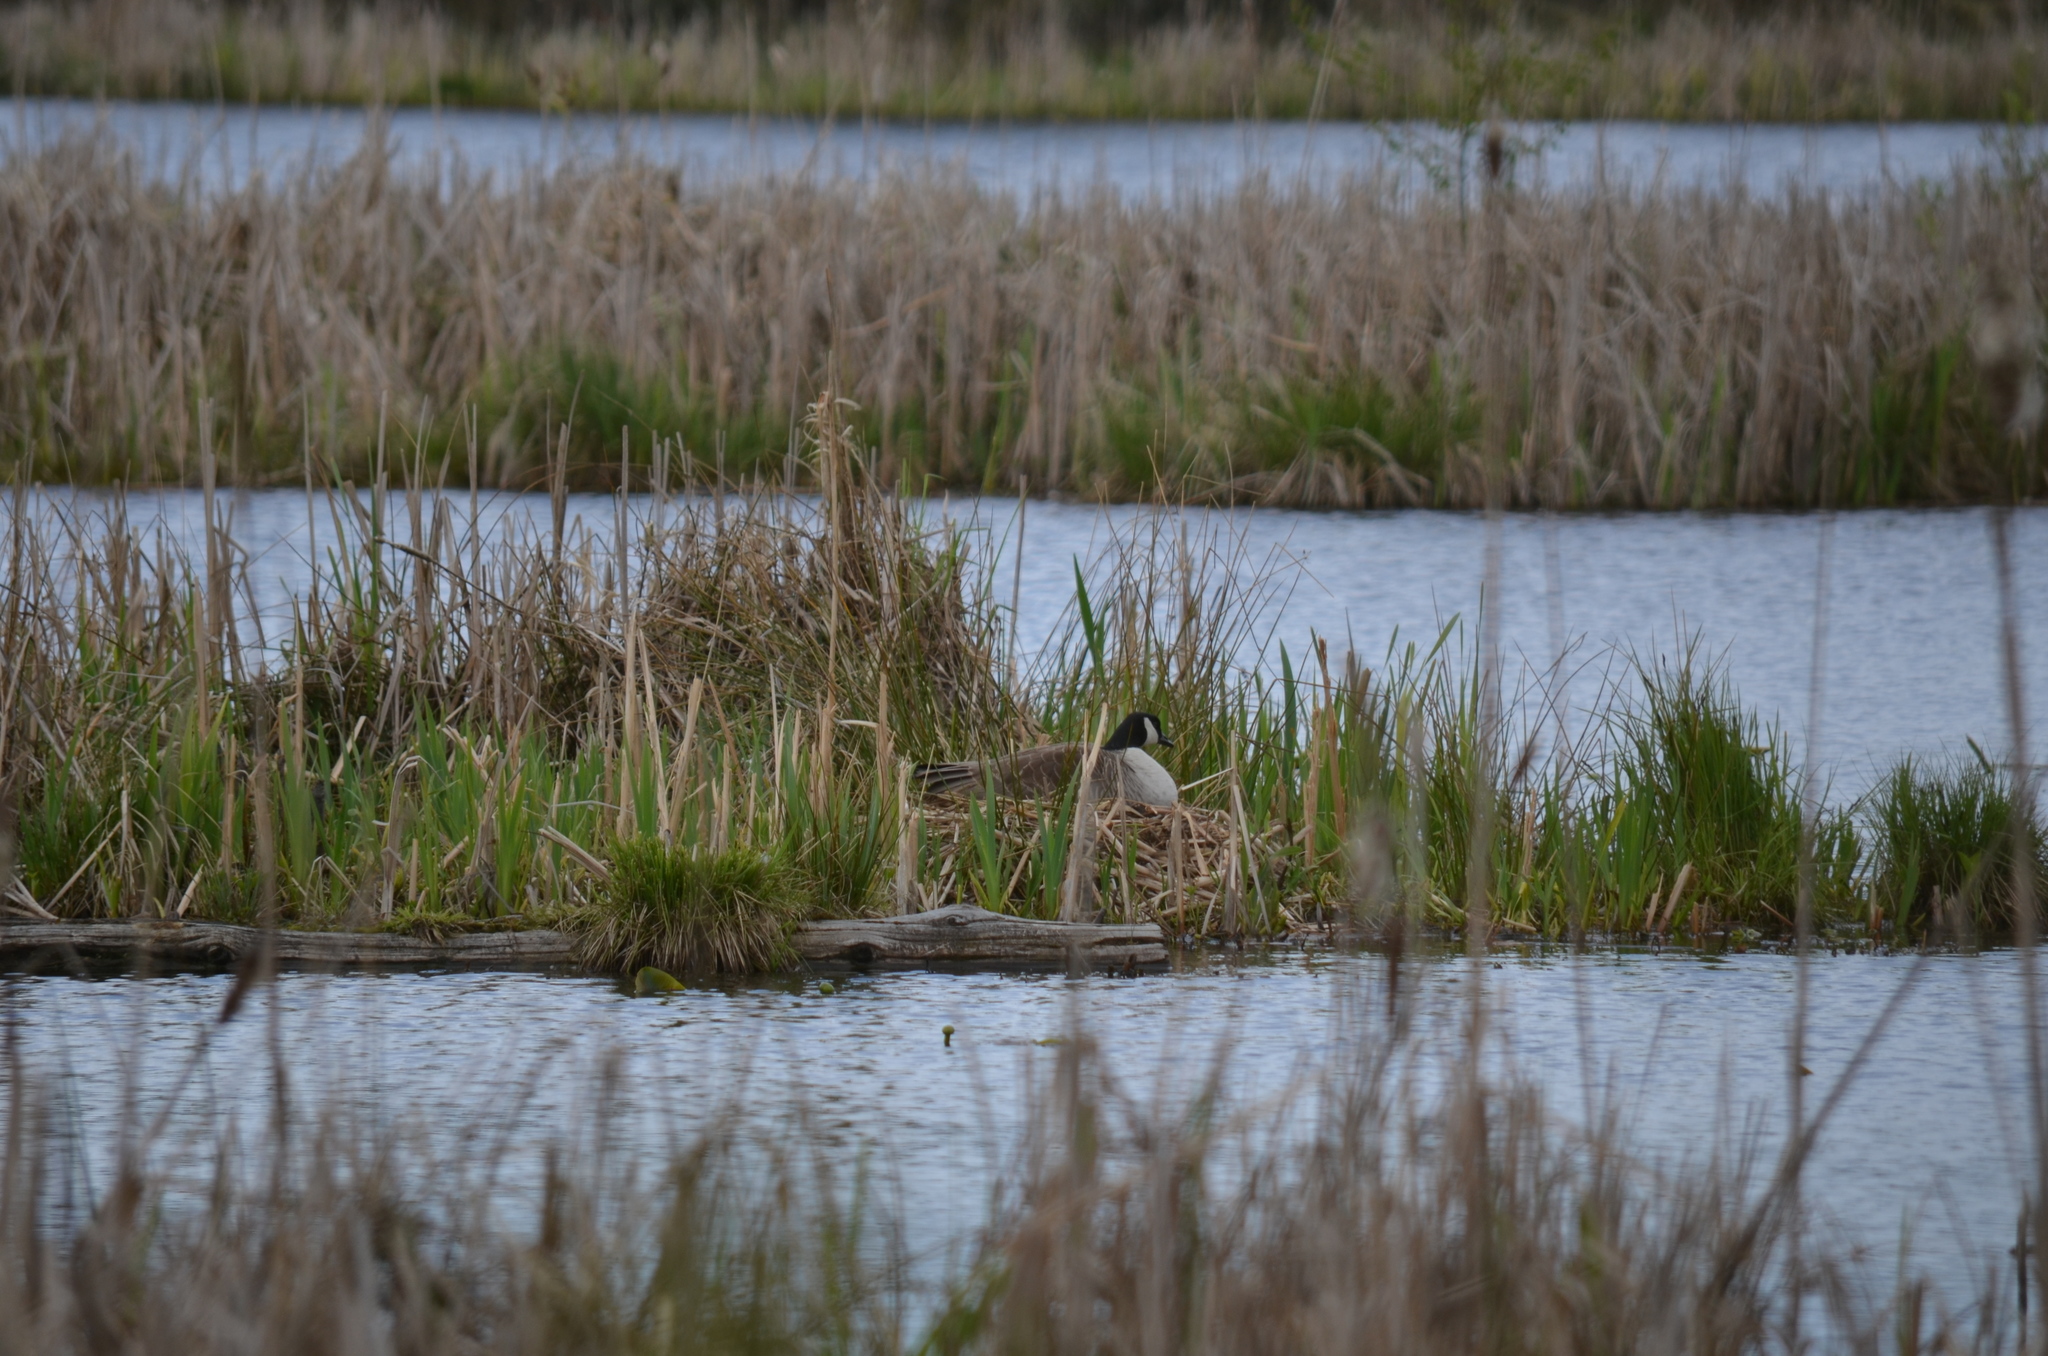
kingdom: Animalia
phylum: Chordata
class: Aves
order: Anseriformes
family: Anatidae
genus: Branta
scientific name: Branta canadensis
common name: Canada goose
